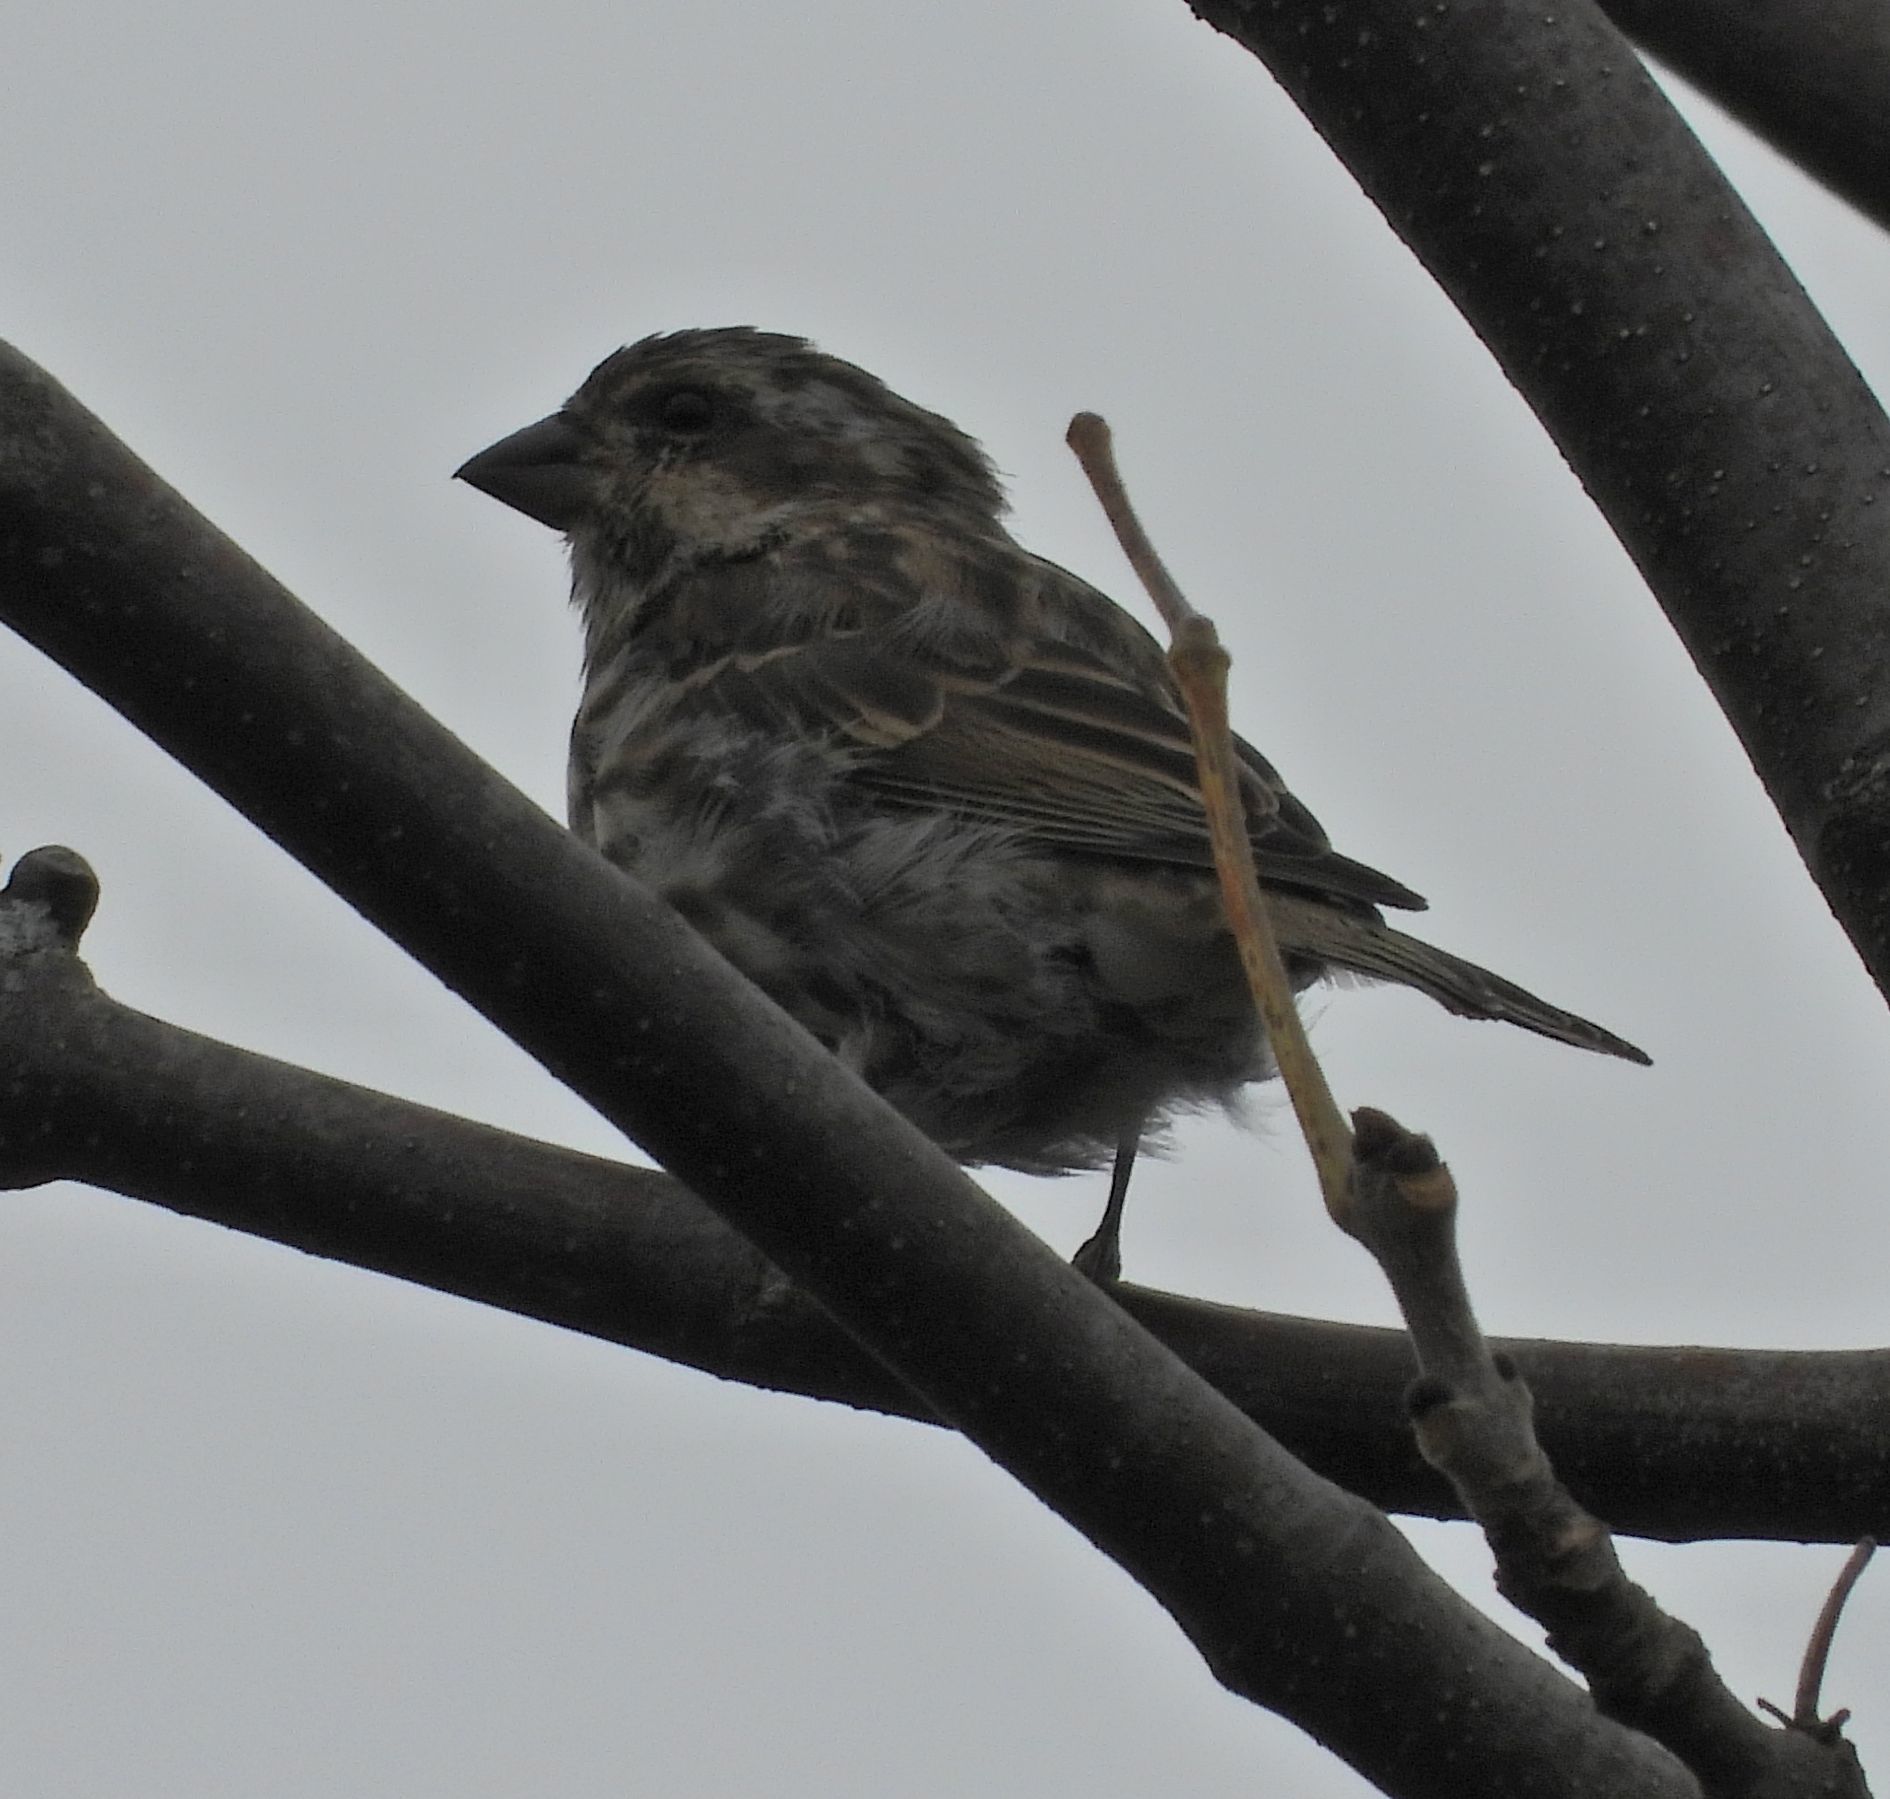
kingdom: Animalia
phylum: Chordata
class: Aves
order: Passeriformes
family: Fringillidae
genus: Haemorhous
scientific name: Haemorhous purpureus
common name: Purple finch
